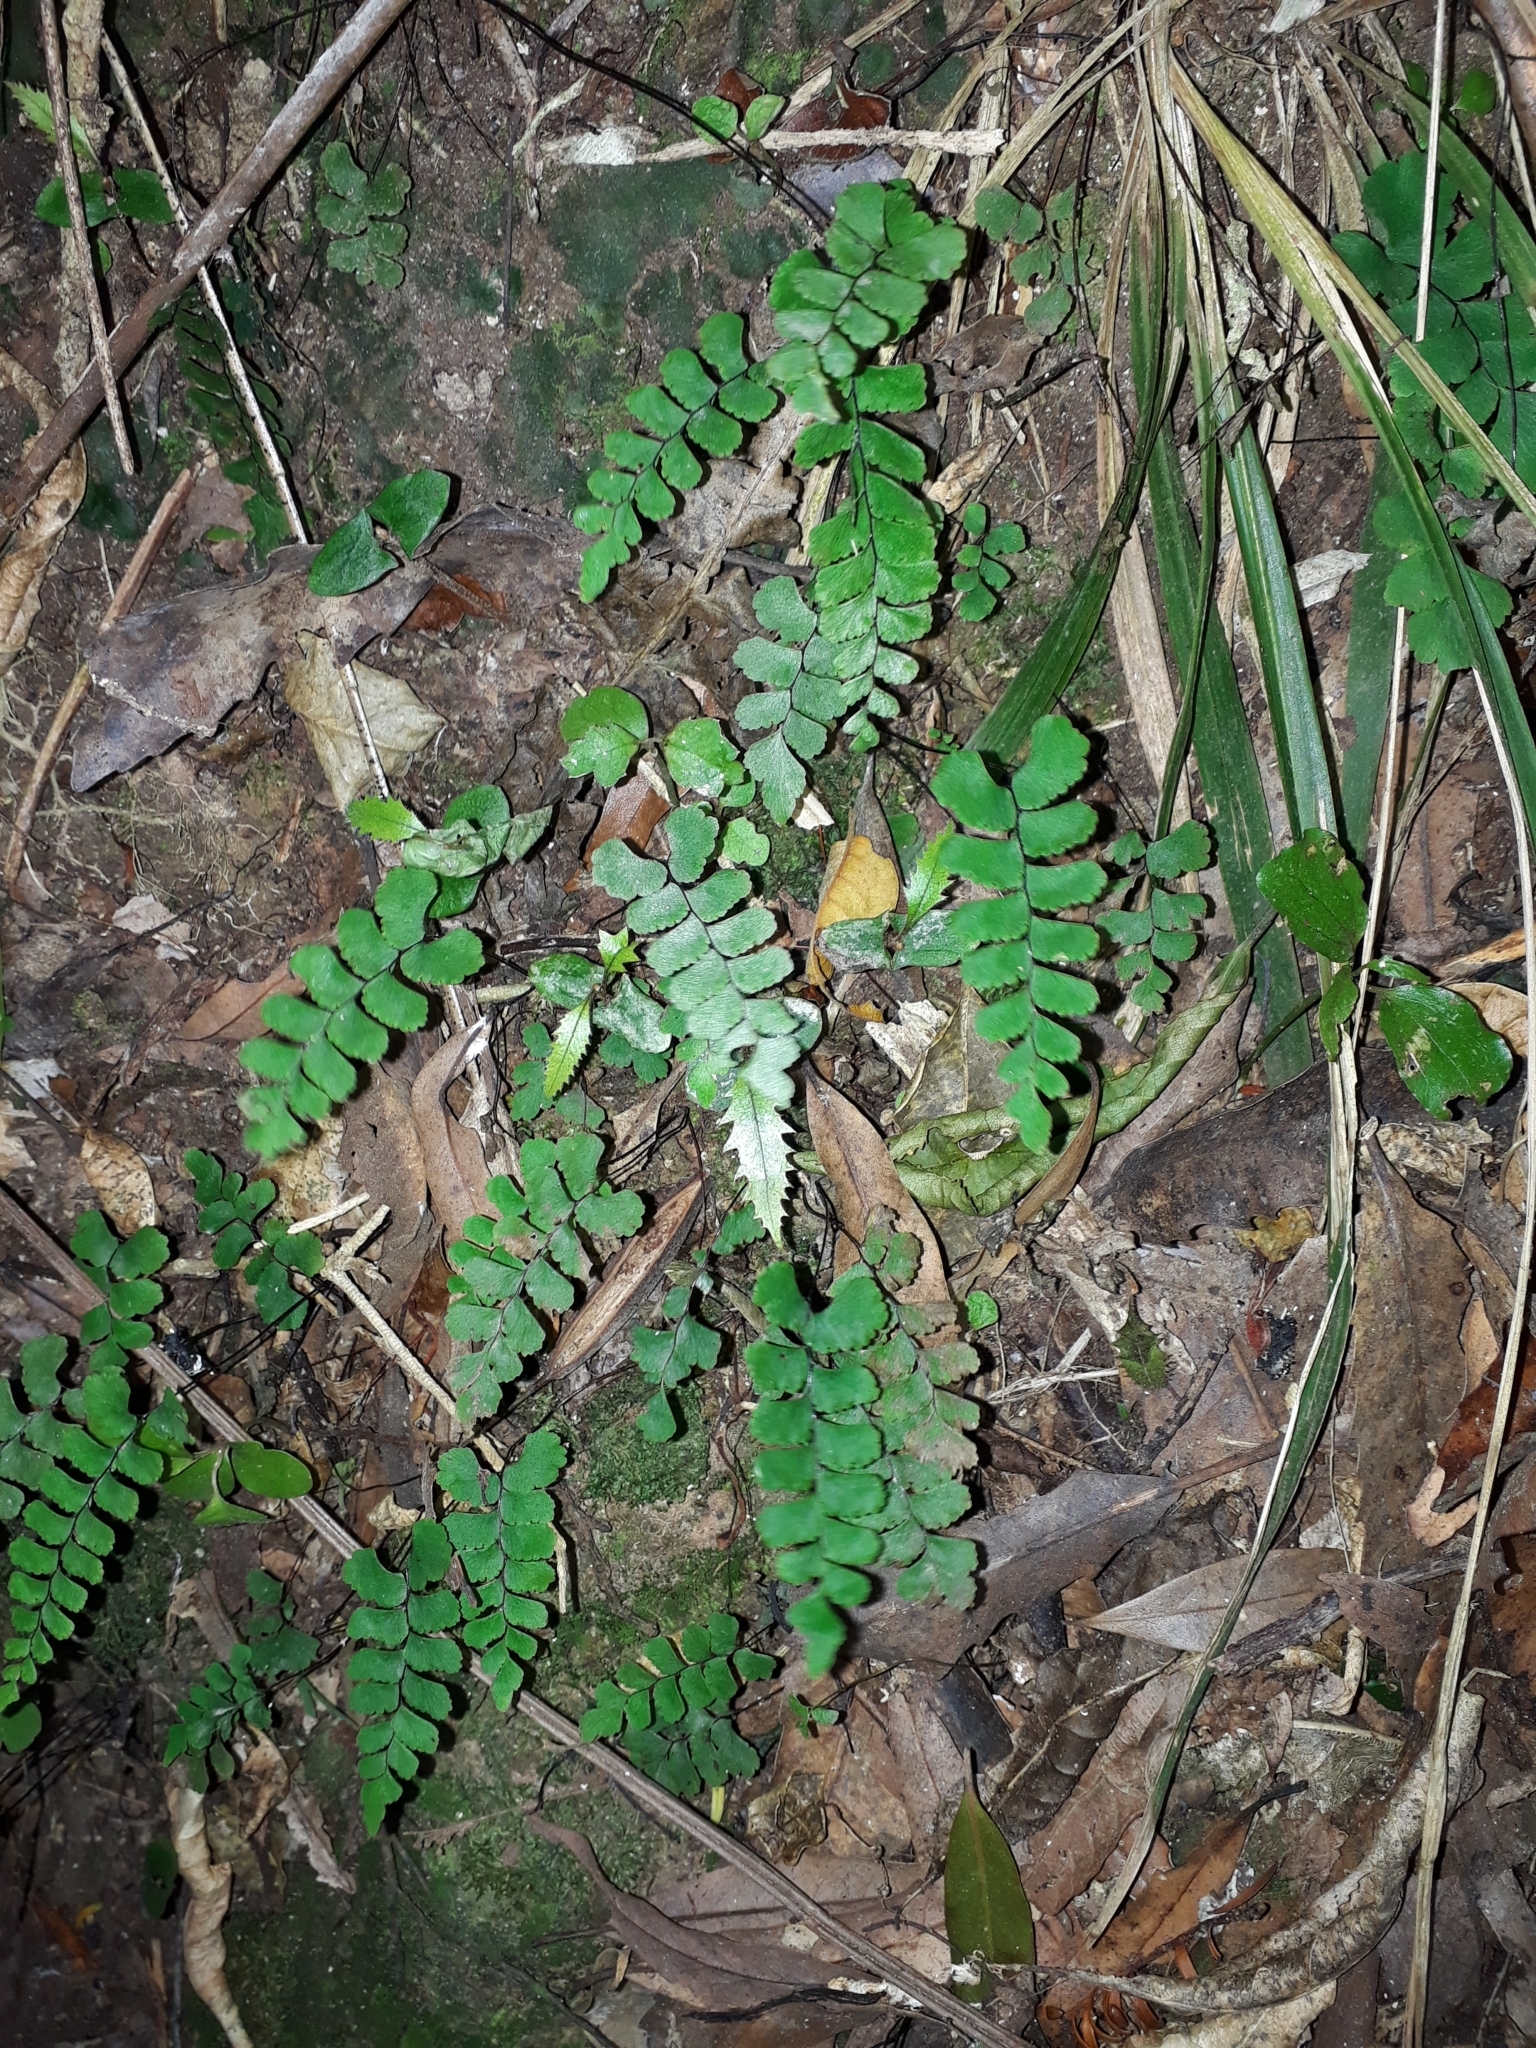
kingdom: Plantae
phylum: Tracheophyta
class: Polypodiopsida
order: Polypodiales
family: Pteridaceae
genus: Adiantum
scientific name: Adiantum diaphanum
